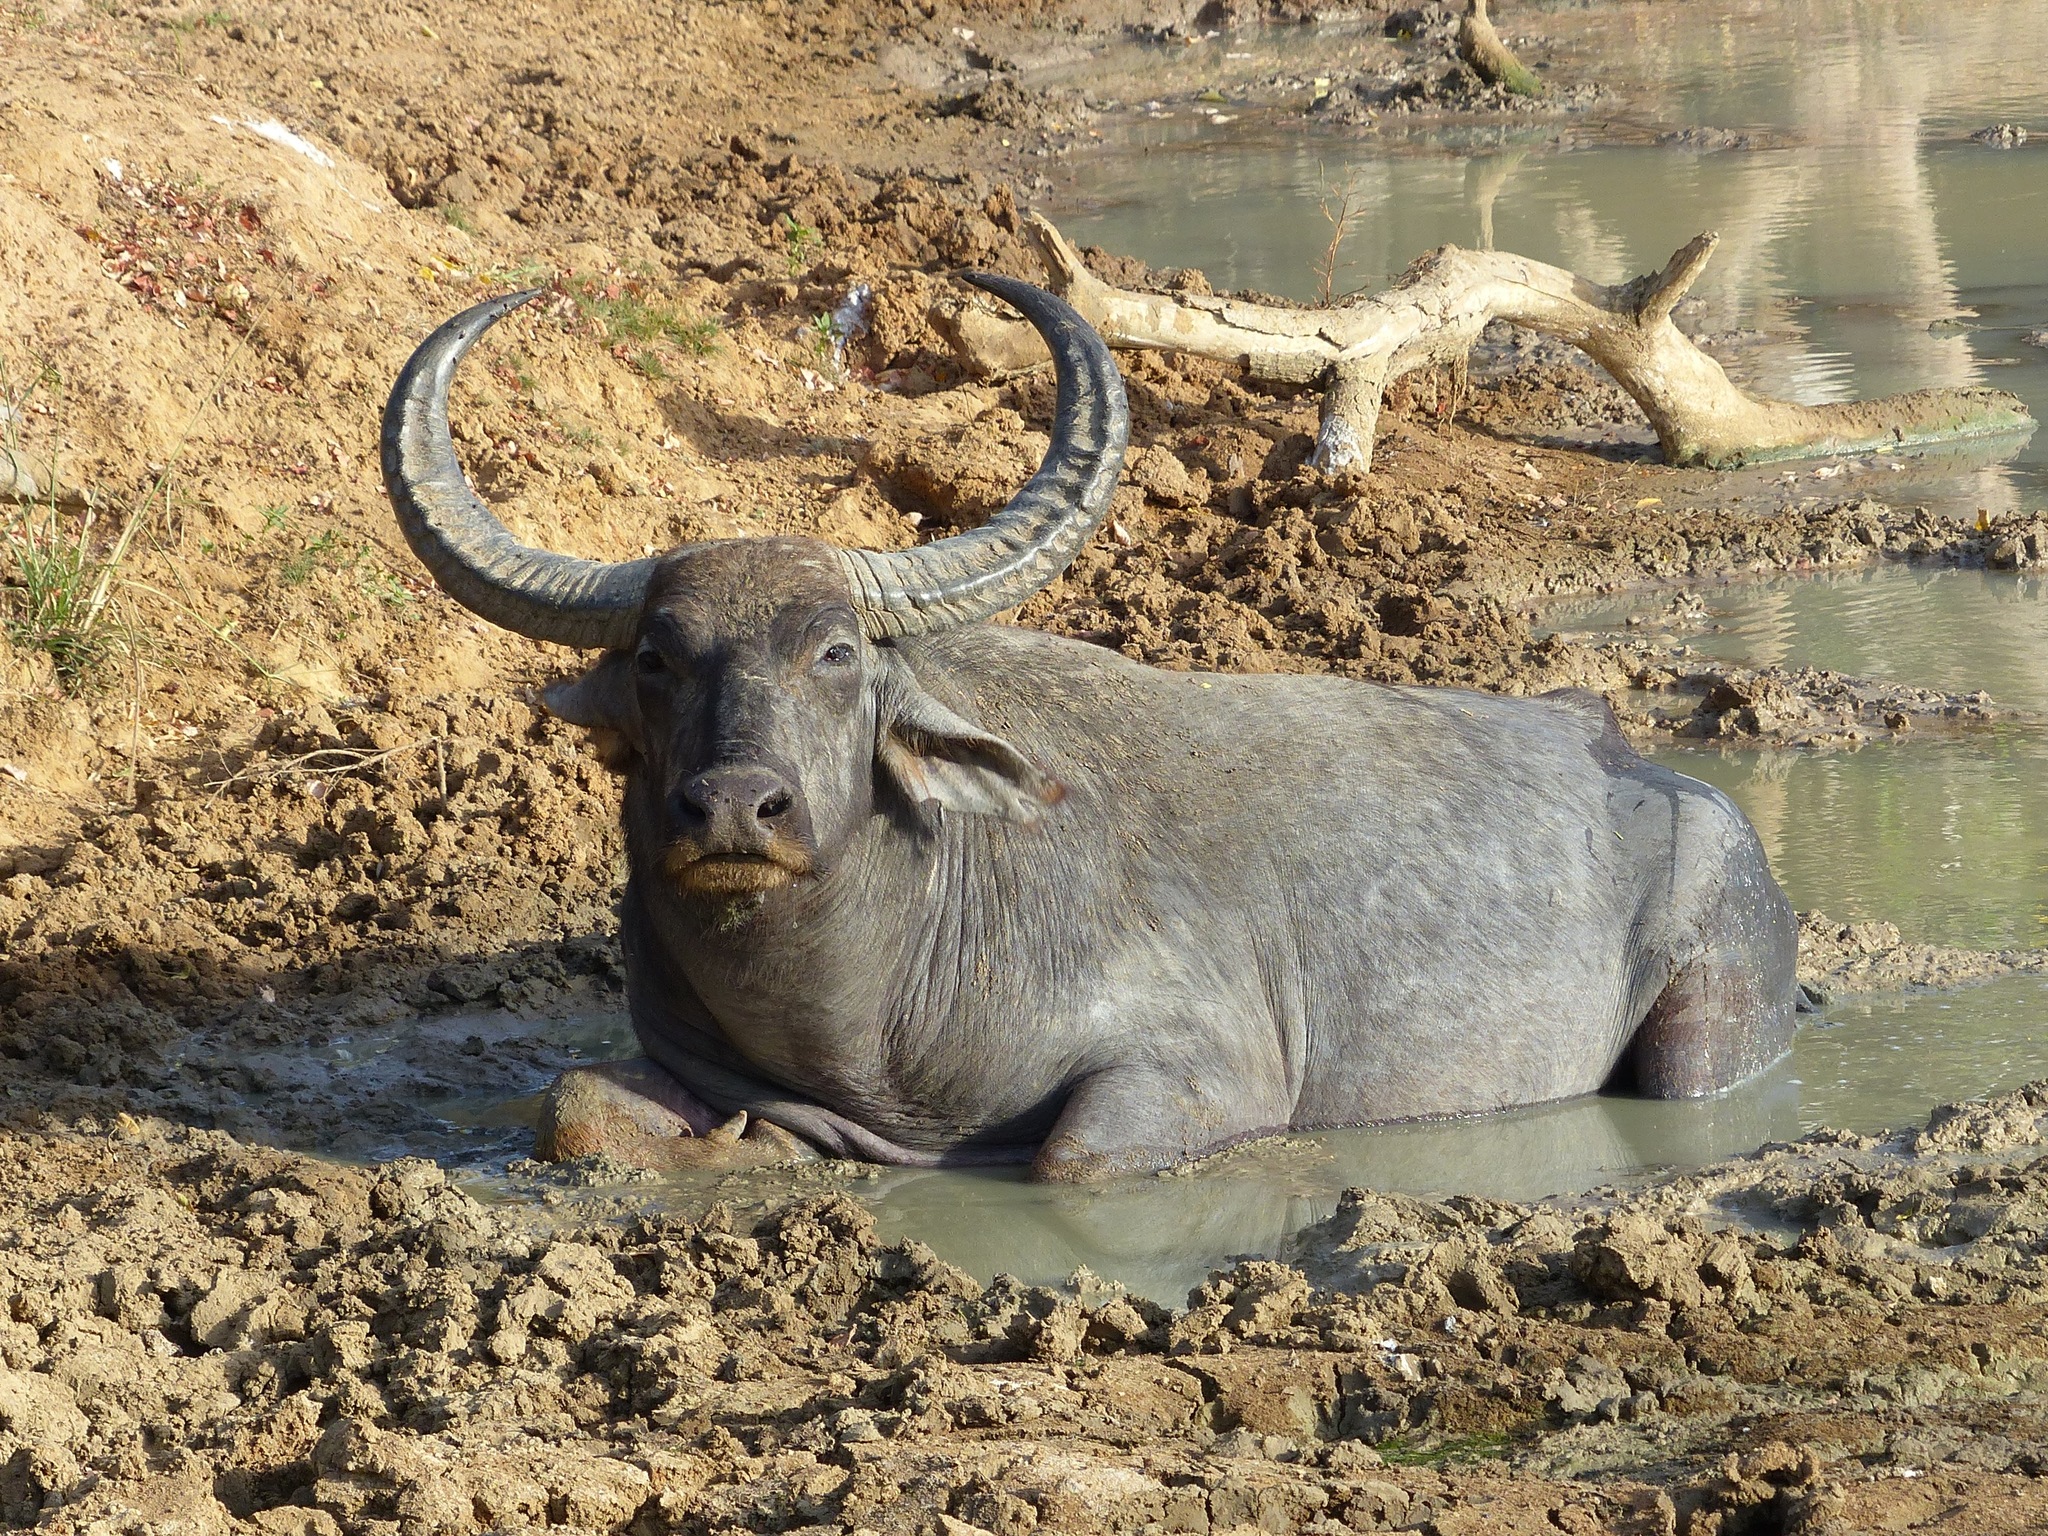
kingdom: Animalia
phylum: Chordata
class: Mammalia
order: Artiodactyla
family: Bovidae
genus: Bubalus
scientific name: Bubalus bubalis
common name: Water buffalo
